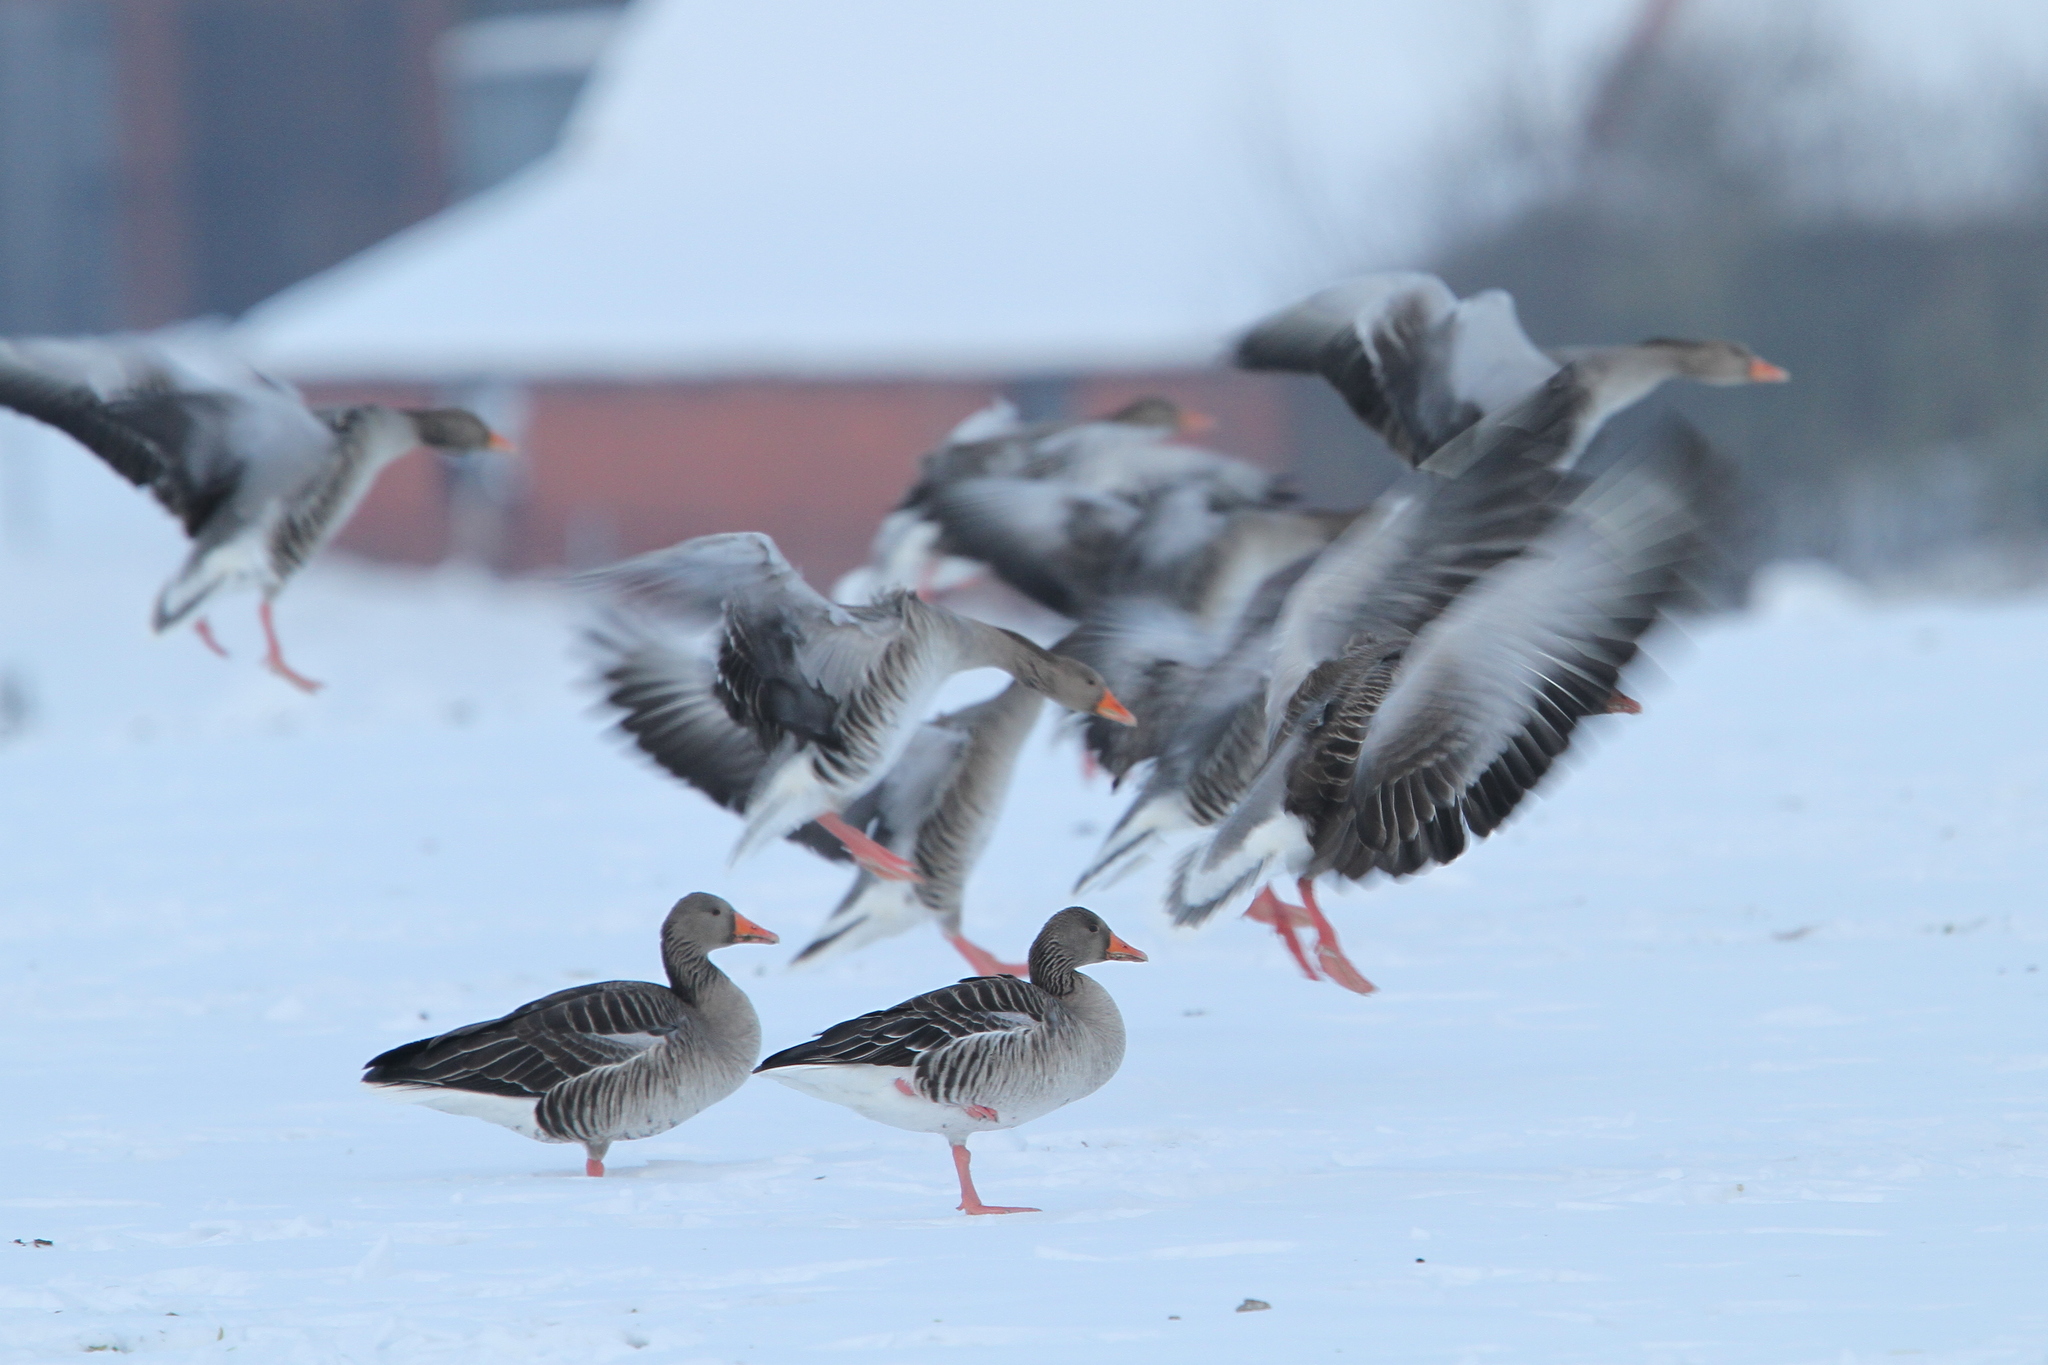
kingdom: Animalia
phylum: Chordata
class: Aves
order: Anseriformes
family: Anatidae
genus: Anser
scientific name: Anser anser
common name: Greylag goose
